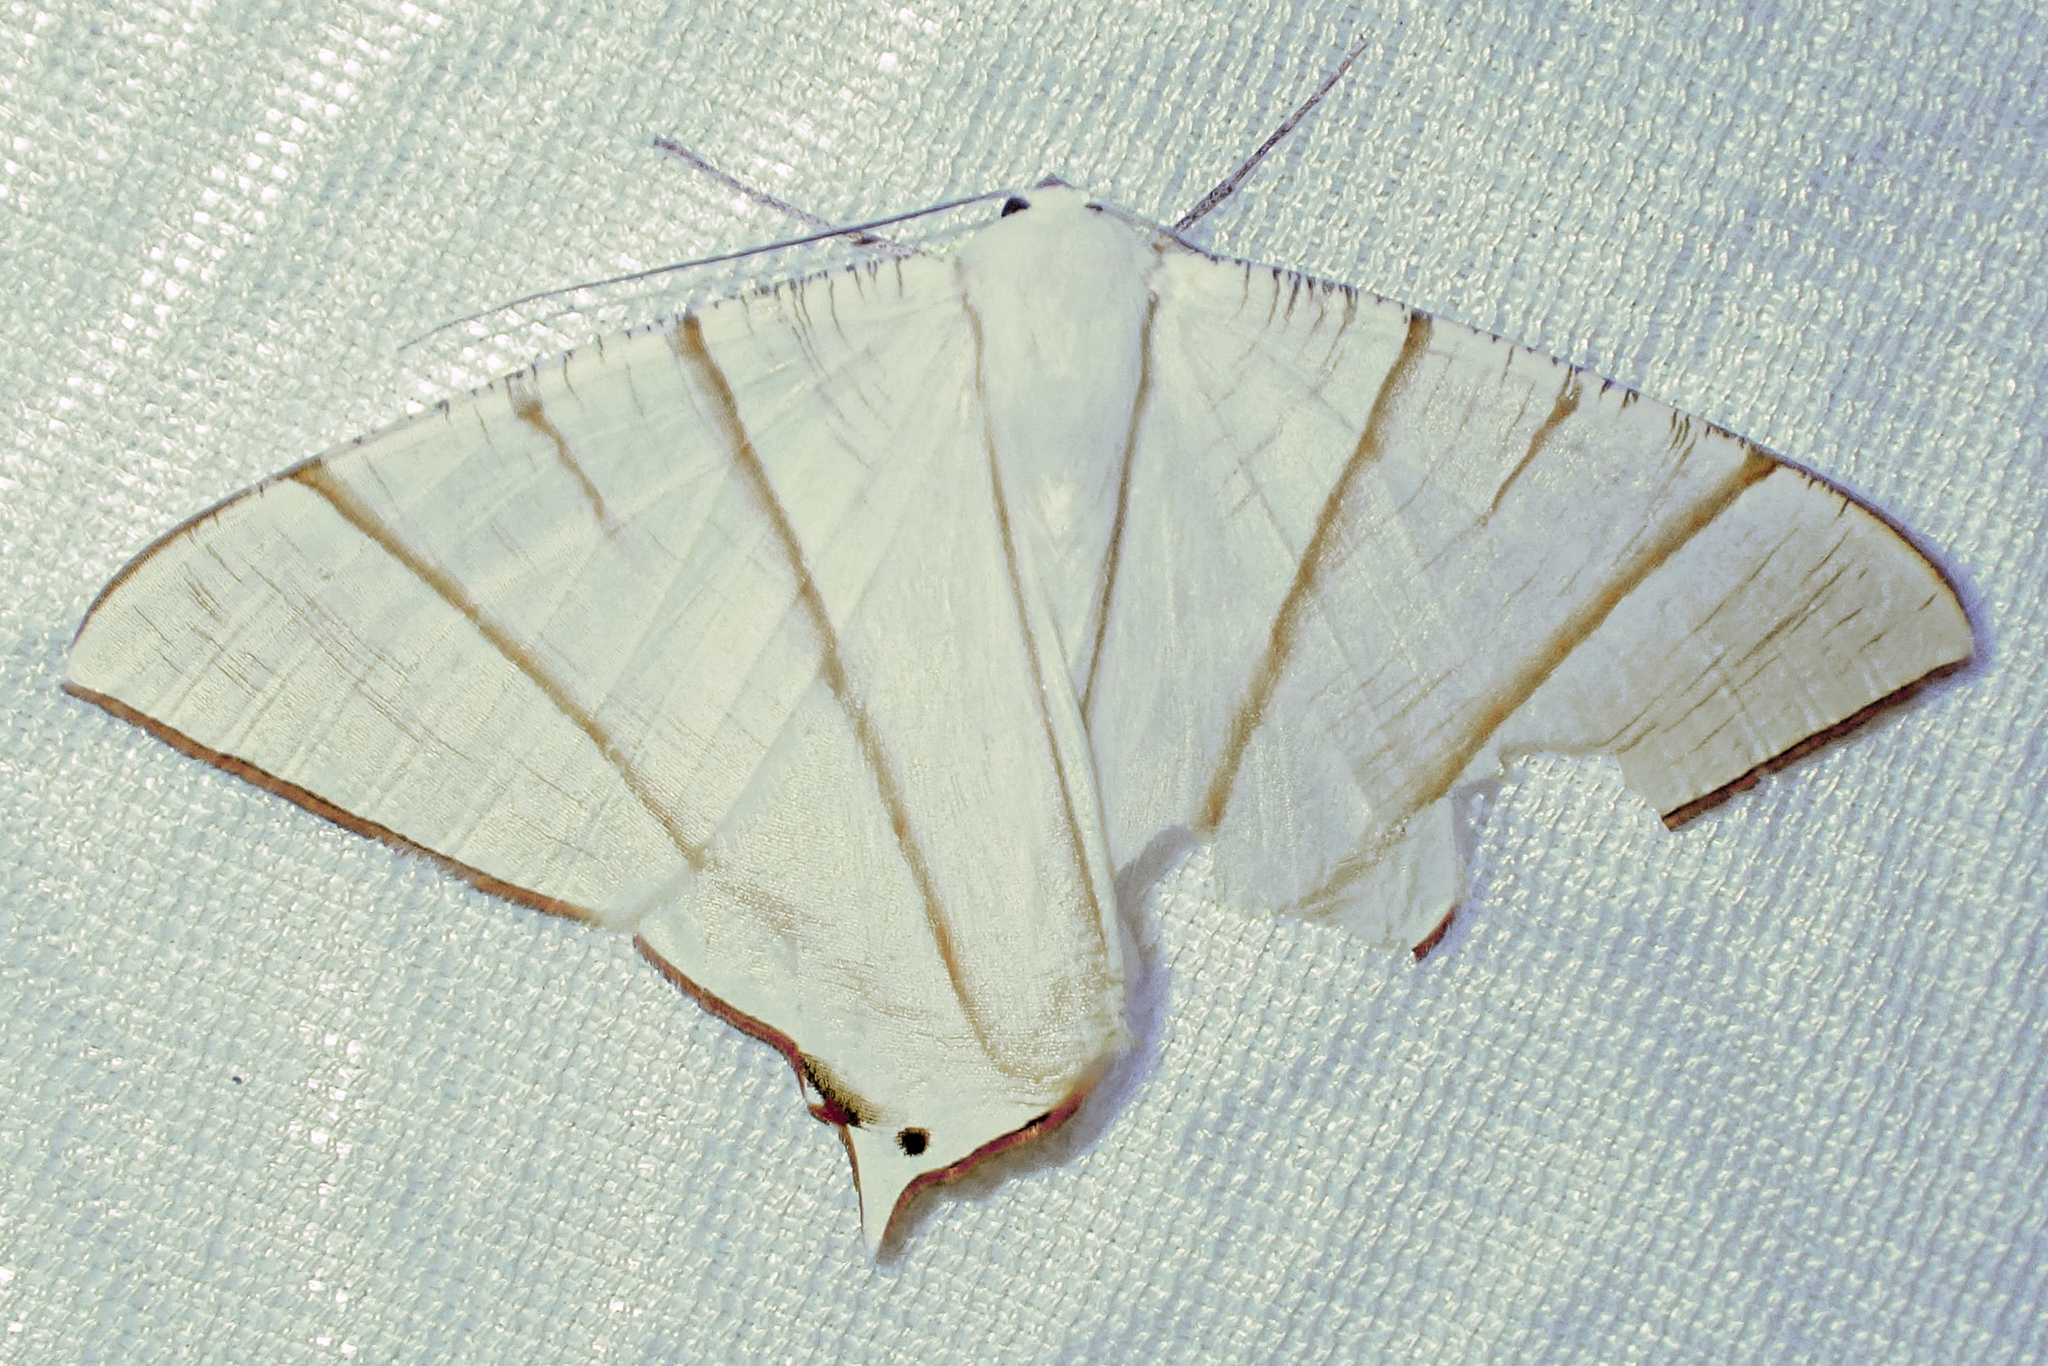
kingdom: Animalia
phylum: Arthropoda
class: Insecta
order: Lepidoptera
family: Geometridae
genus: Ourapteryx
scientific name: Ourapteryx picticaudata
